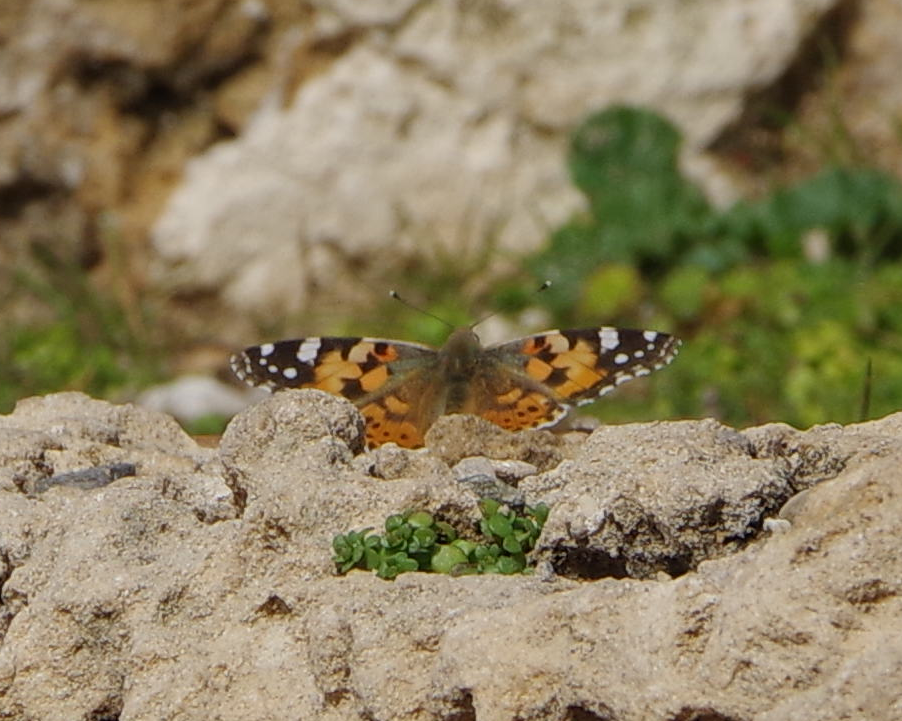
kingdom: Animalia
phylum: Arthropoda
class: Insecta
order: Lepidoptera
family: Nymphalidae
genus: Vanessa
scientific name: Vanessa cardui
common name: Painted lady
